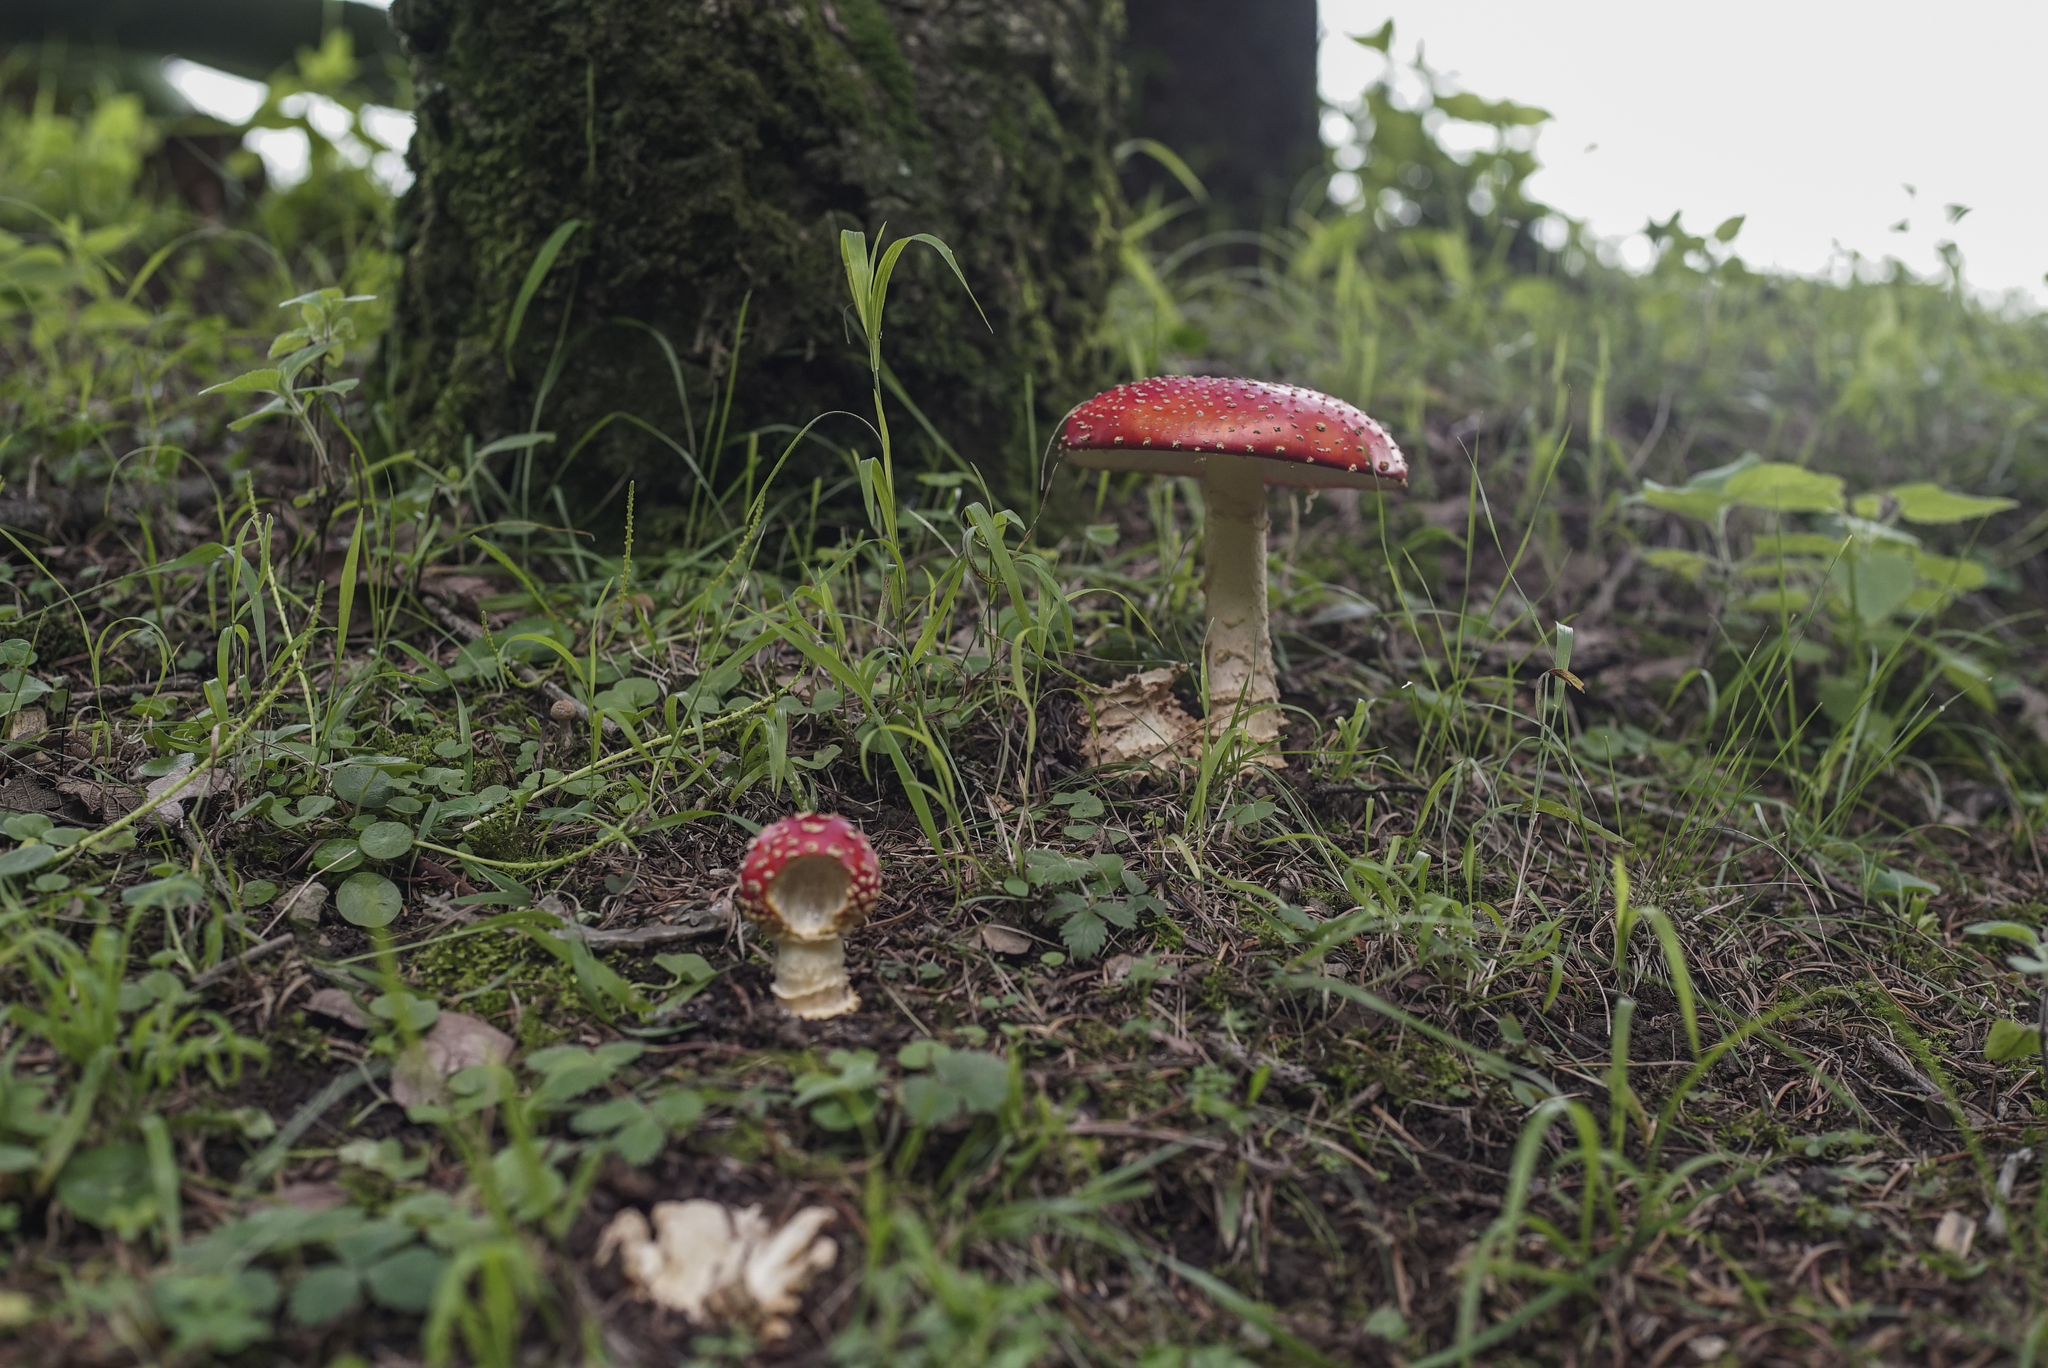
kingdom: Fungi
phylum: Basidiomycota
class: Agaricomycetes
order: Agaricales
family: Amanitaceae
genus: Amanita
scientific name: Amanita muscaria
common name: Fly agaric
